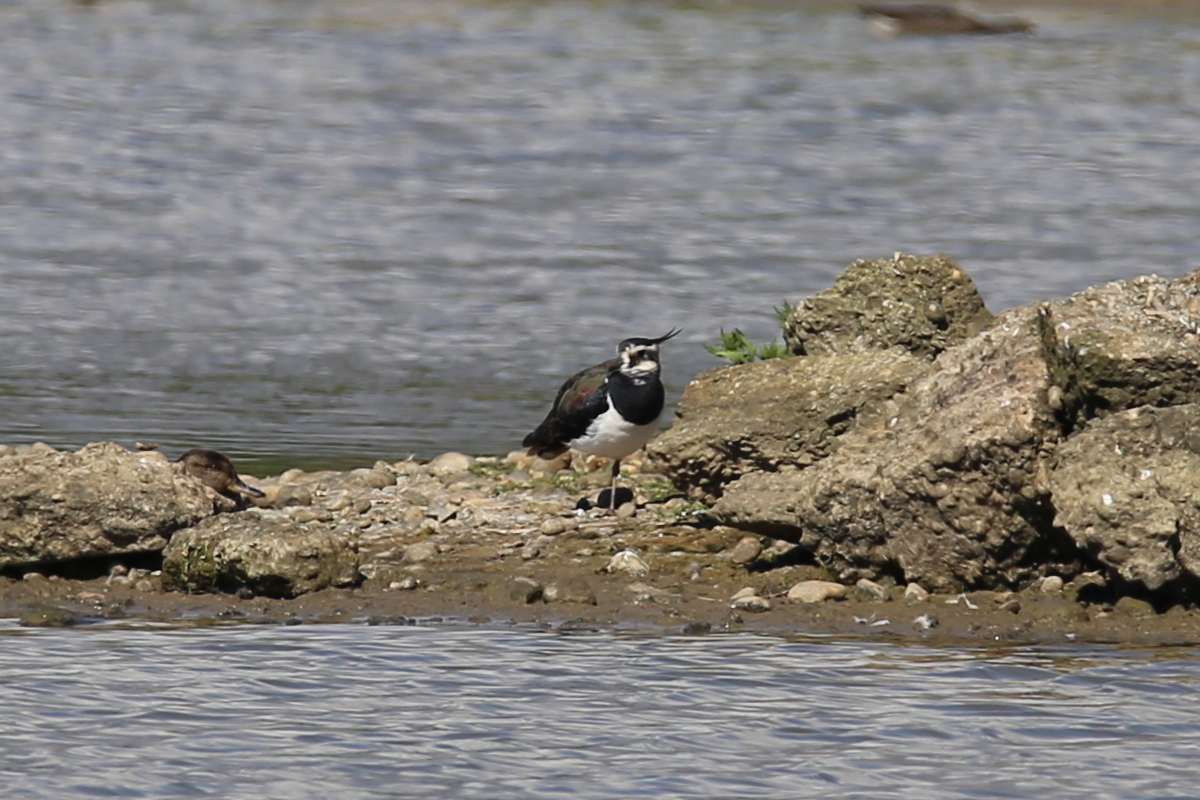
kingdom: Animalia
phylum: Chordata
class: Aves
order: Charadriiformes
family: Charadriidae
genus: Vanellus
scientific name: Vanellus vanellus
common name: Northern lapwing
